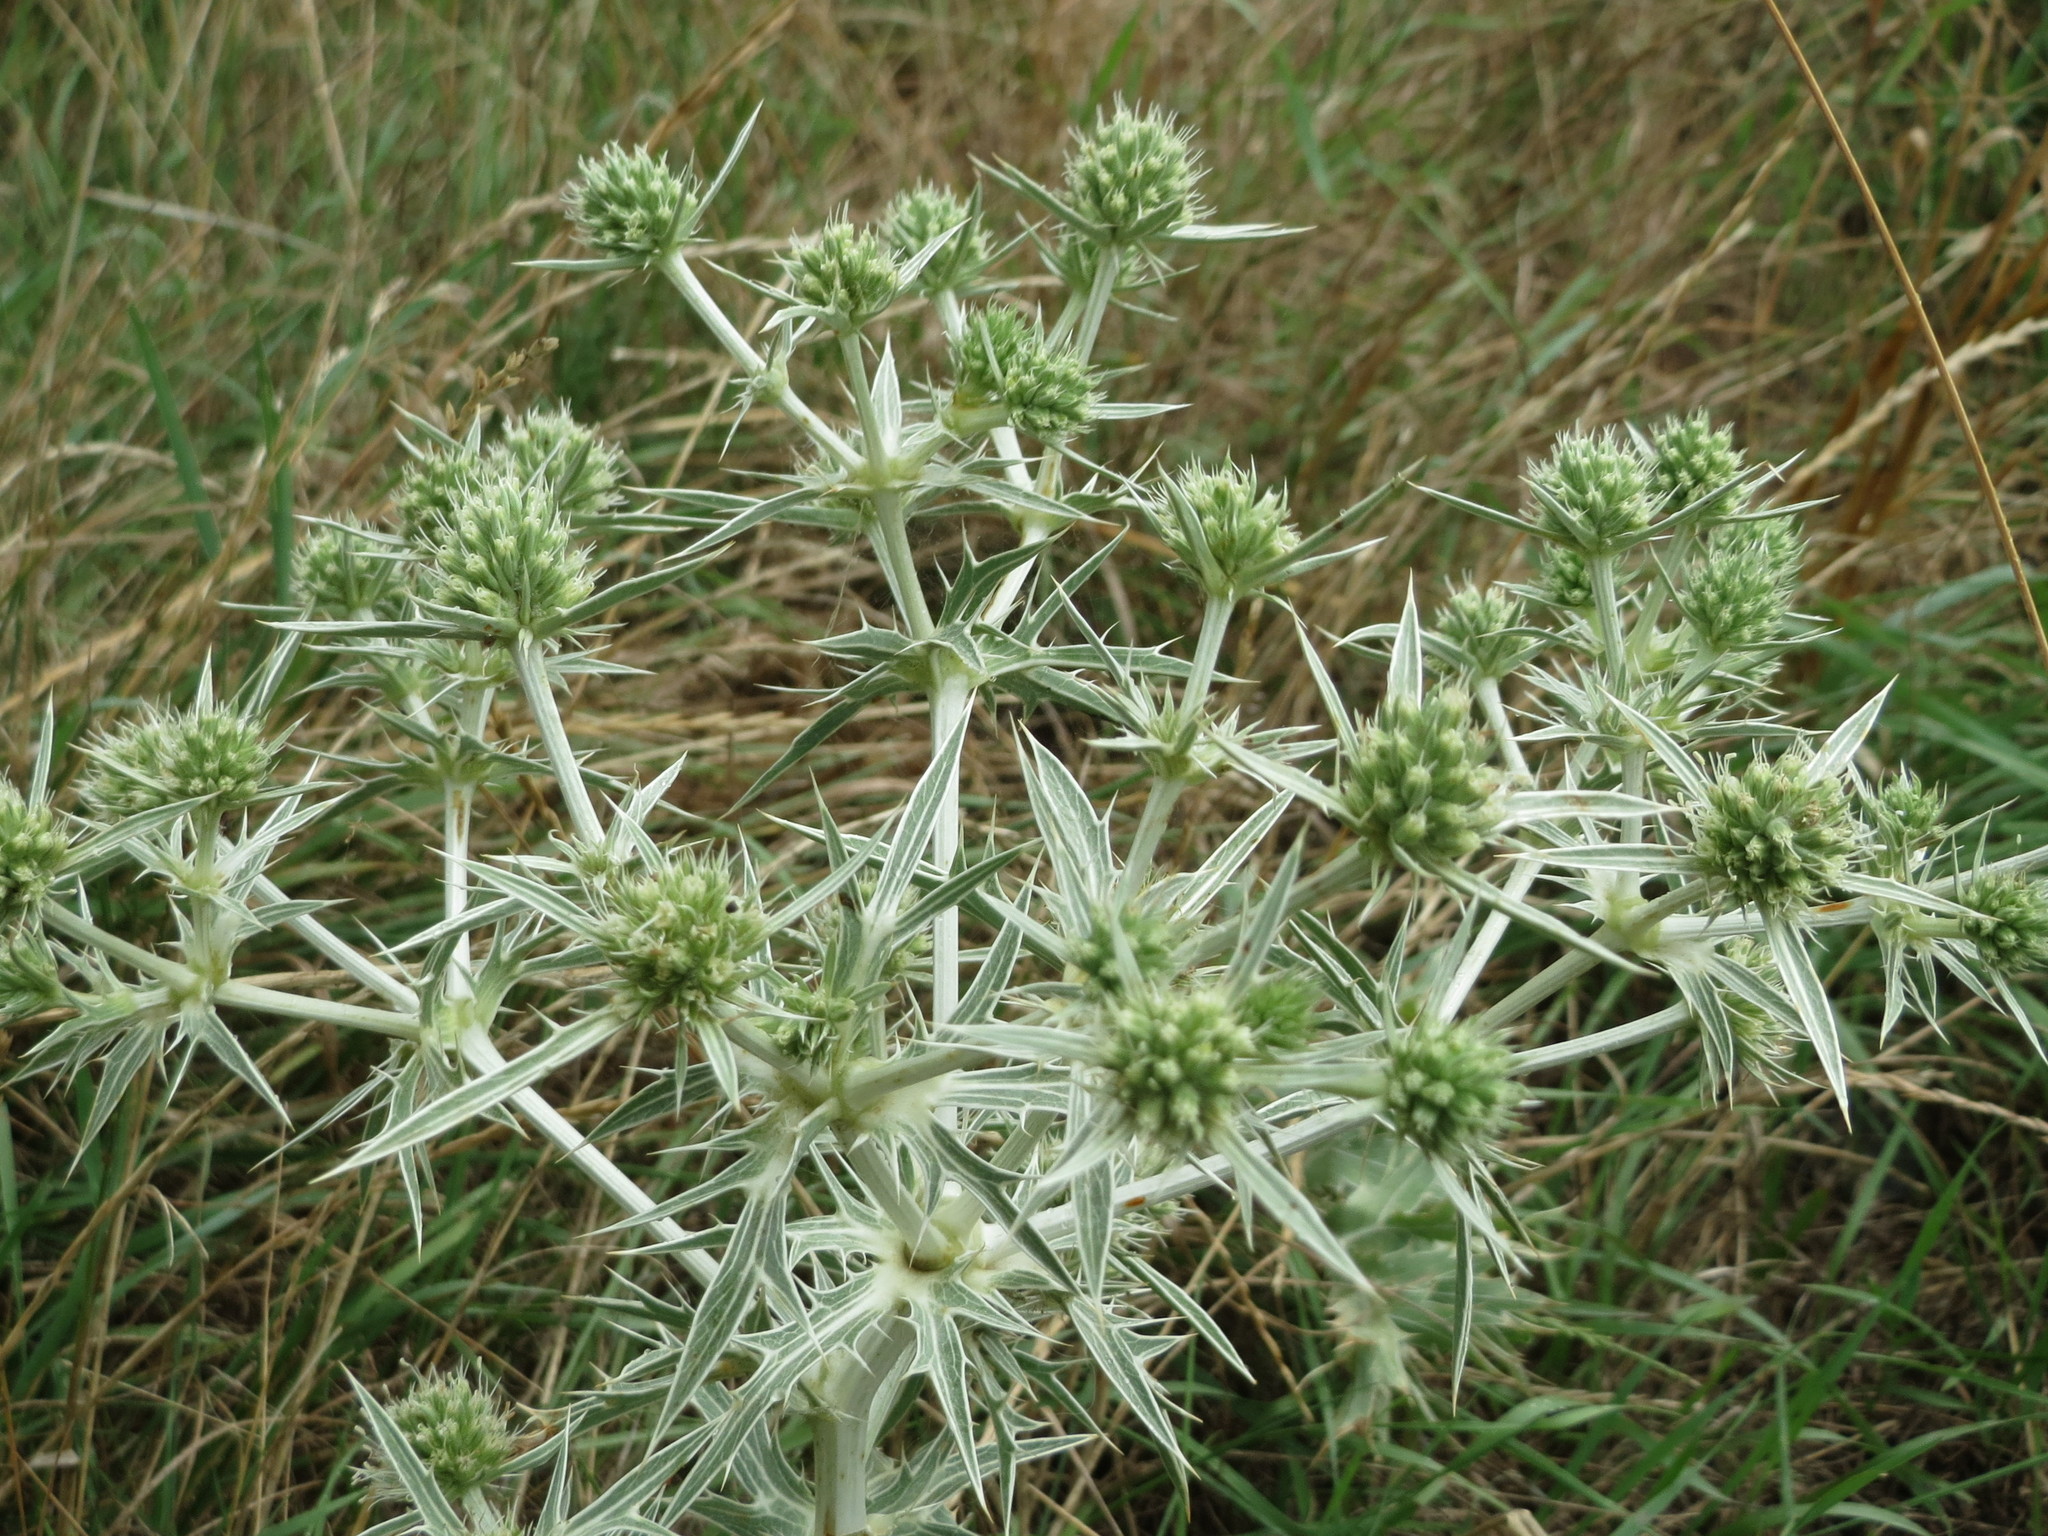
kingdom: Plantae
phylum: Tracheophyta
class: Magnoliopsida
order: Apiales
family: Apiaceae
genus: Eryngium
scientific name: Eryngium campestre
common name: Field eryngo
